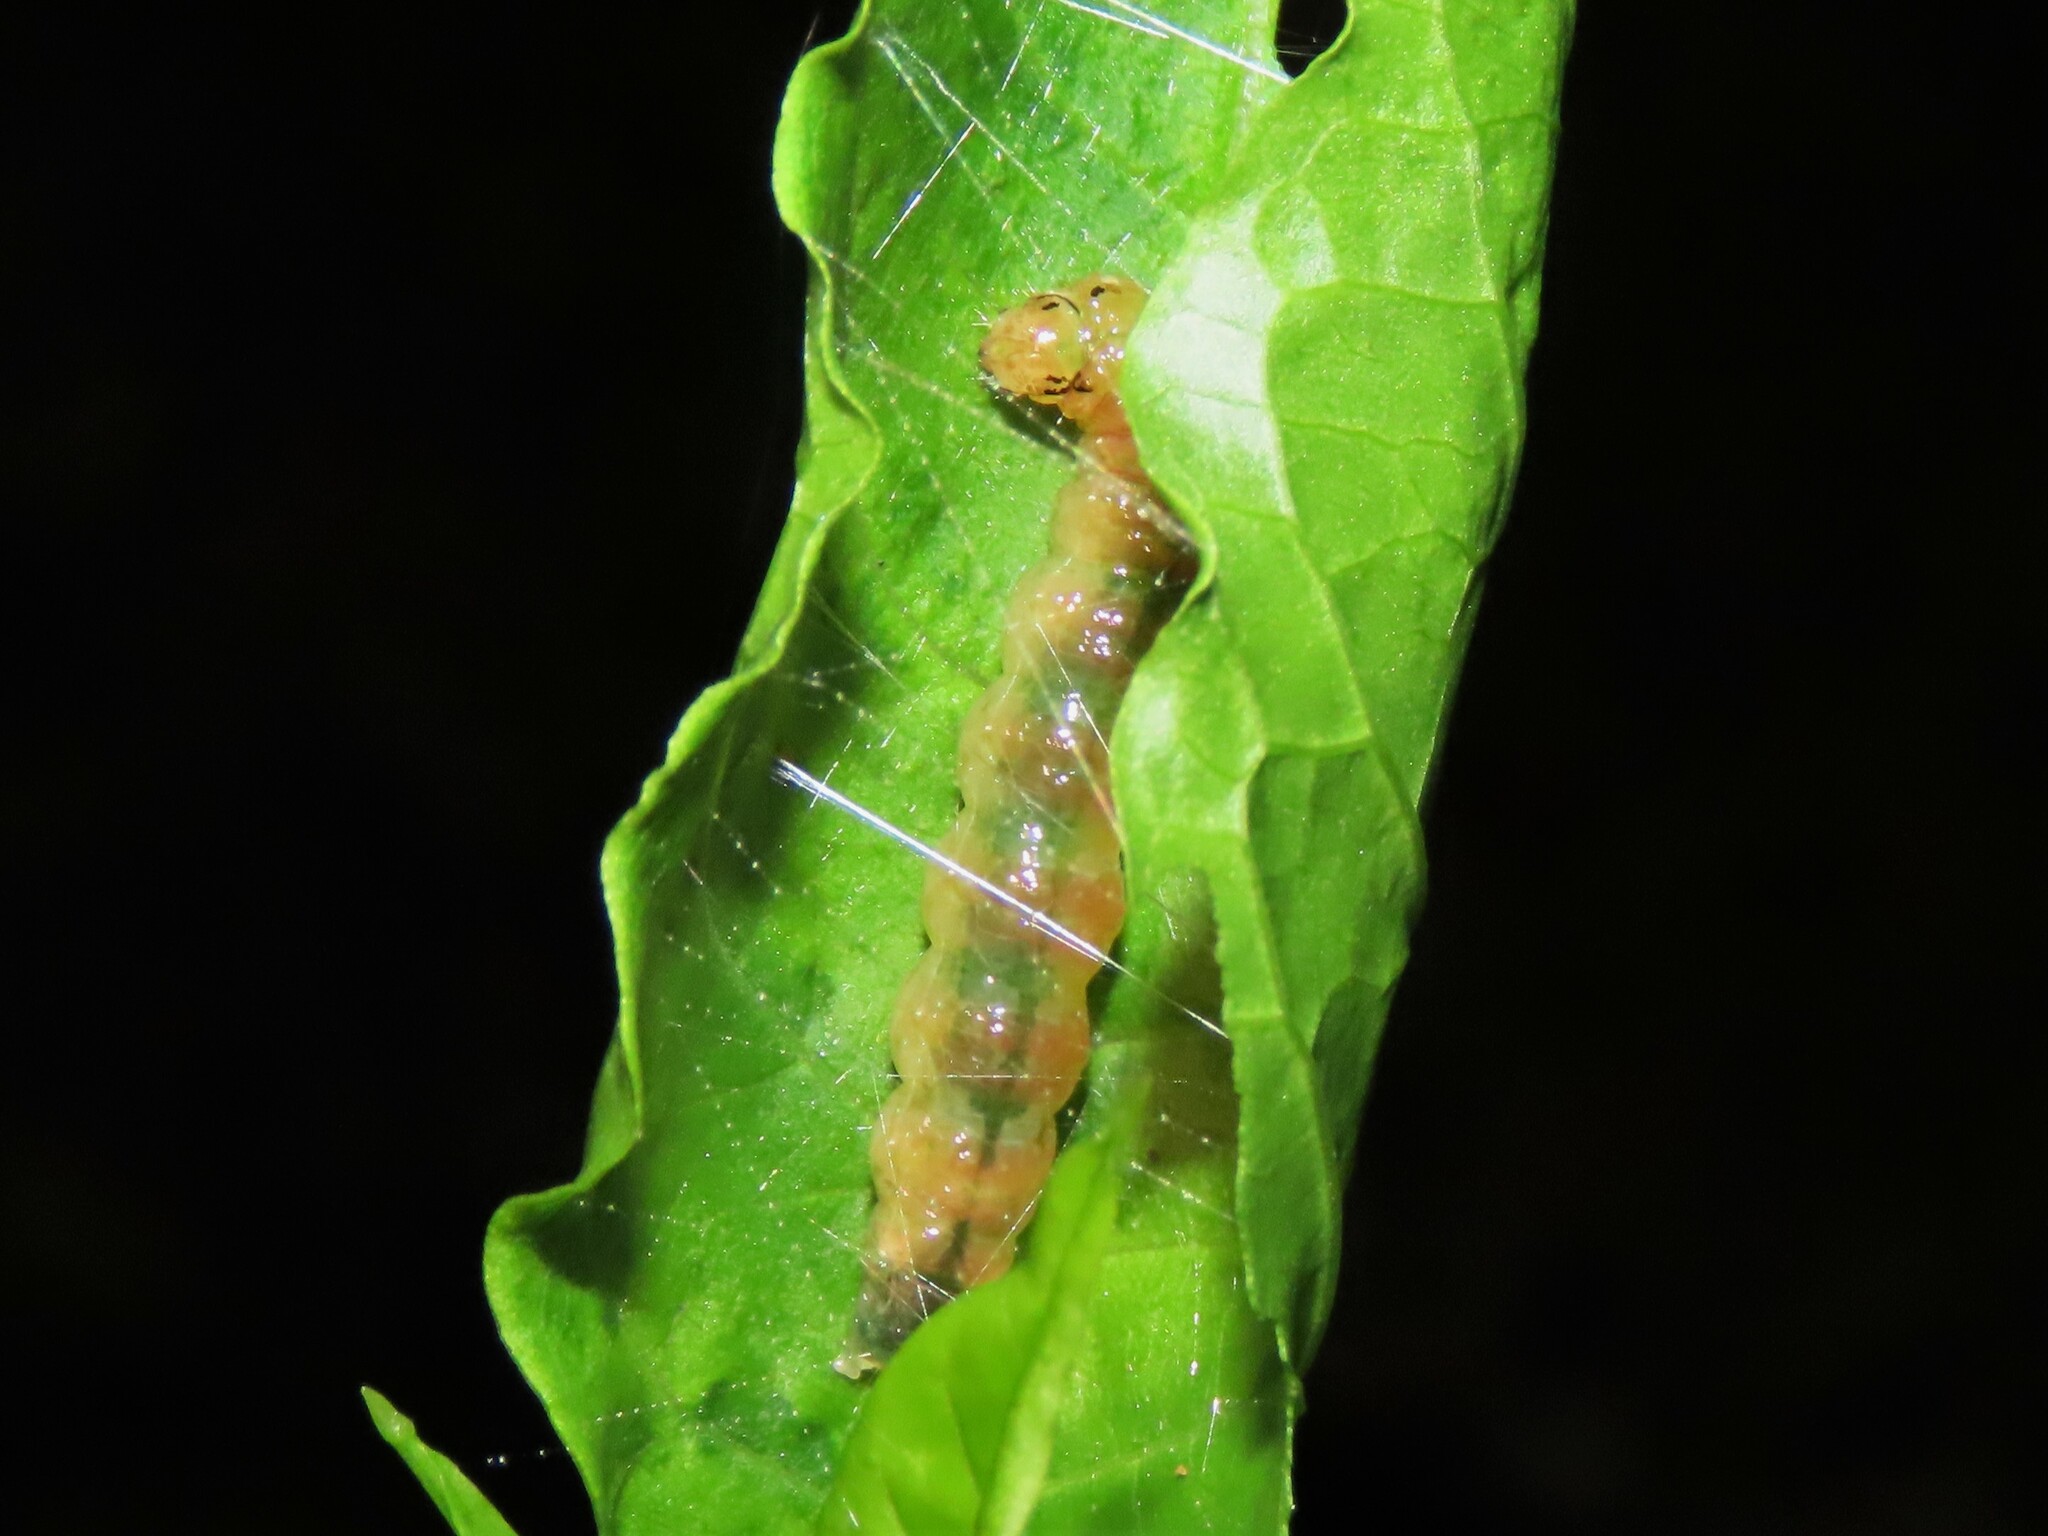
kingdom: Animalia
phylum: Arthropoda
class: Insecta
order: Lepidoptera
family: Crambidae
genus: Syllepte
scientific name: Syllepte obscuralis
